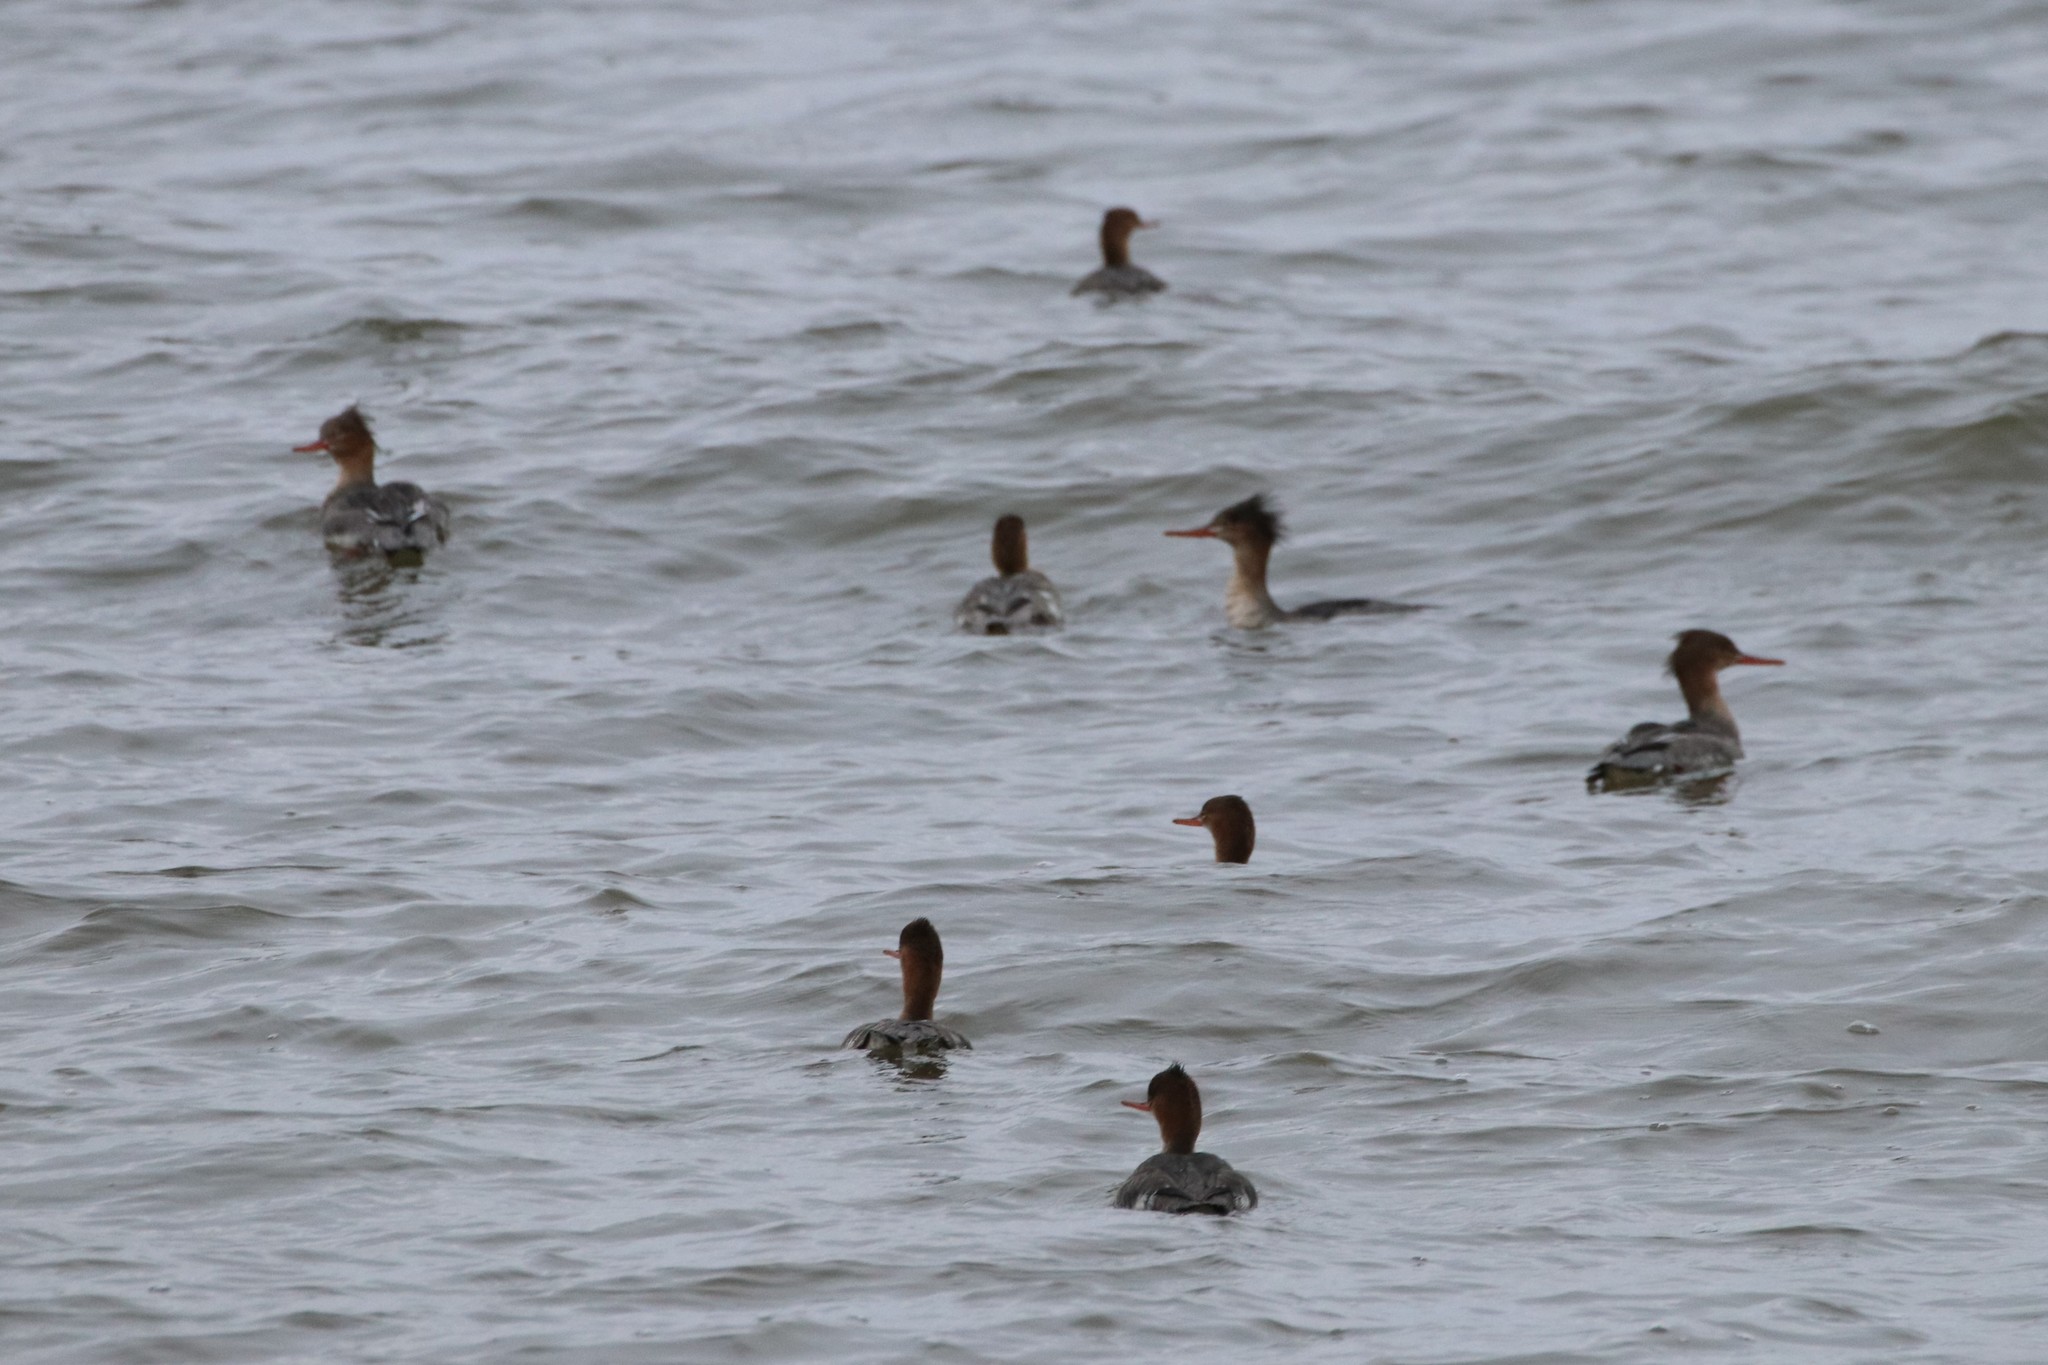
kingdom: Animalia
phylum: Chordata
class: Aves
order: Anseriformes
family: Anatidae
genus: Mergus
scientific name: Mergus serrator
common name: Red-breasted merganser
